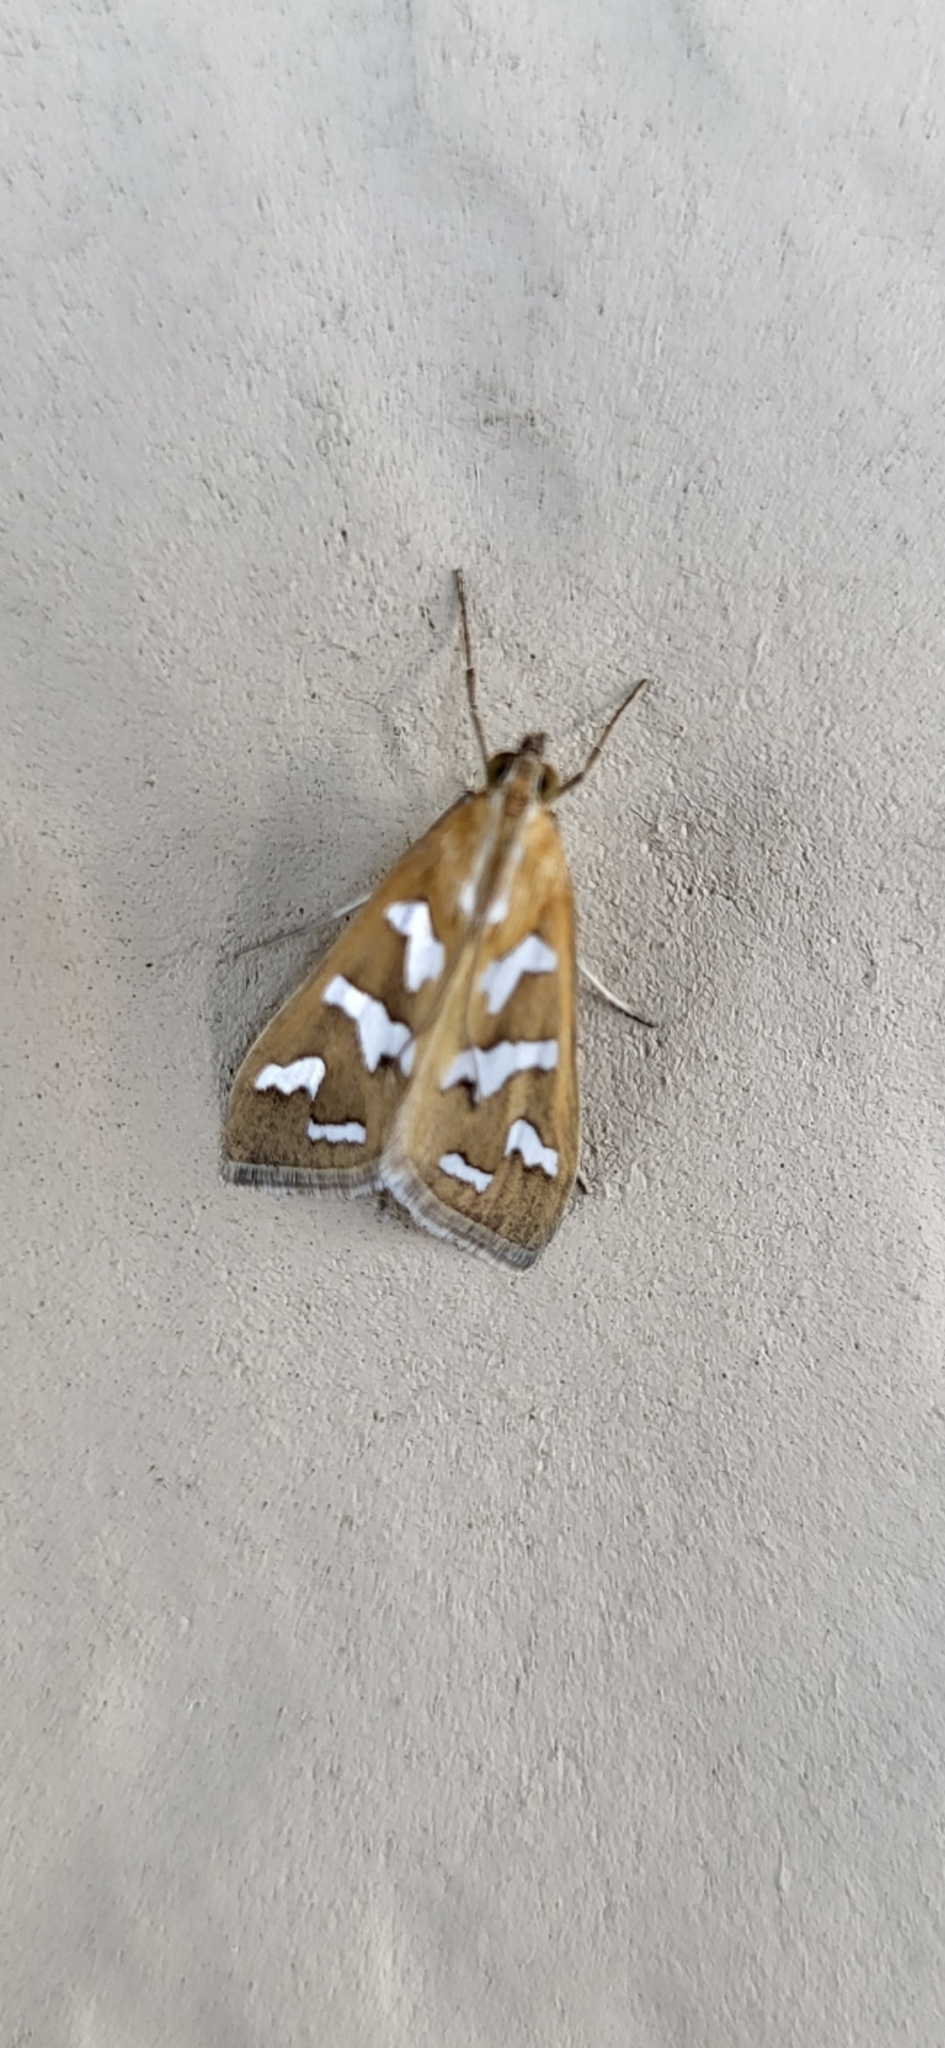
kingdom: Animalia
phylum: Arthropoda
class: Insecta
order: Lepidoptera
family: Crambidae
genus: Diastictis
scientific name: Diastictis fracturalis
